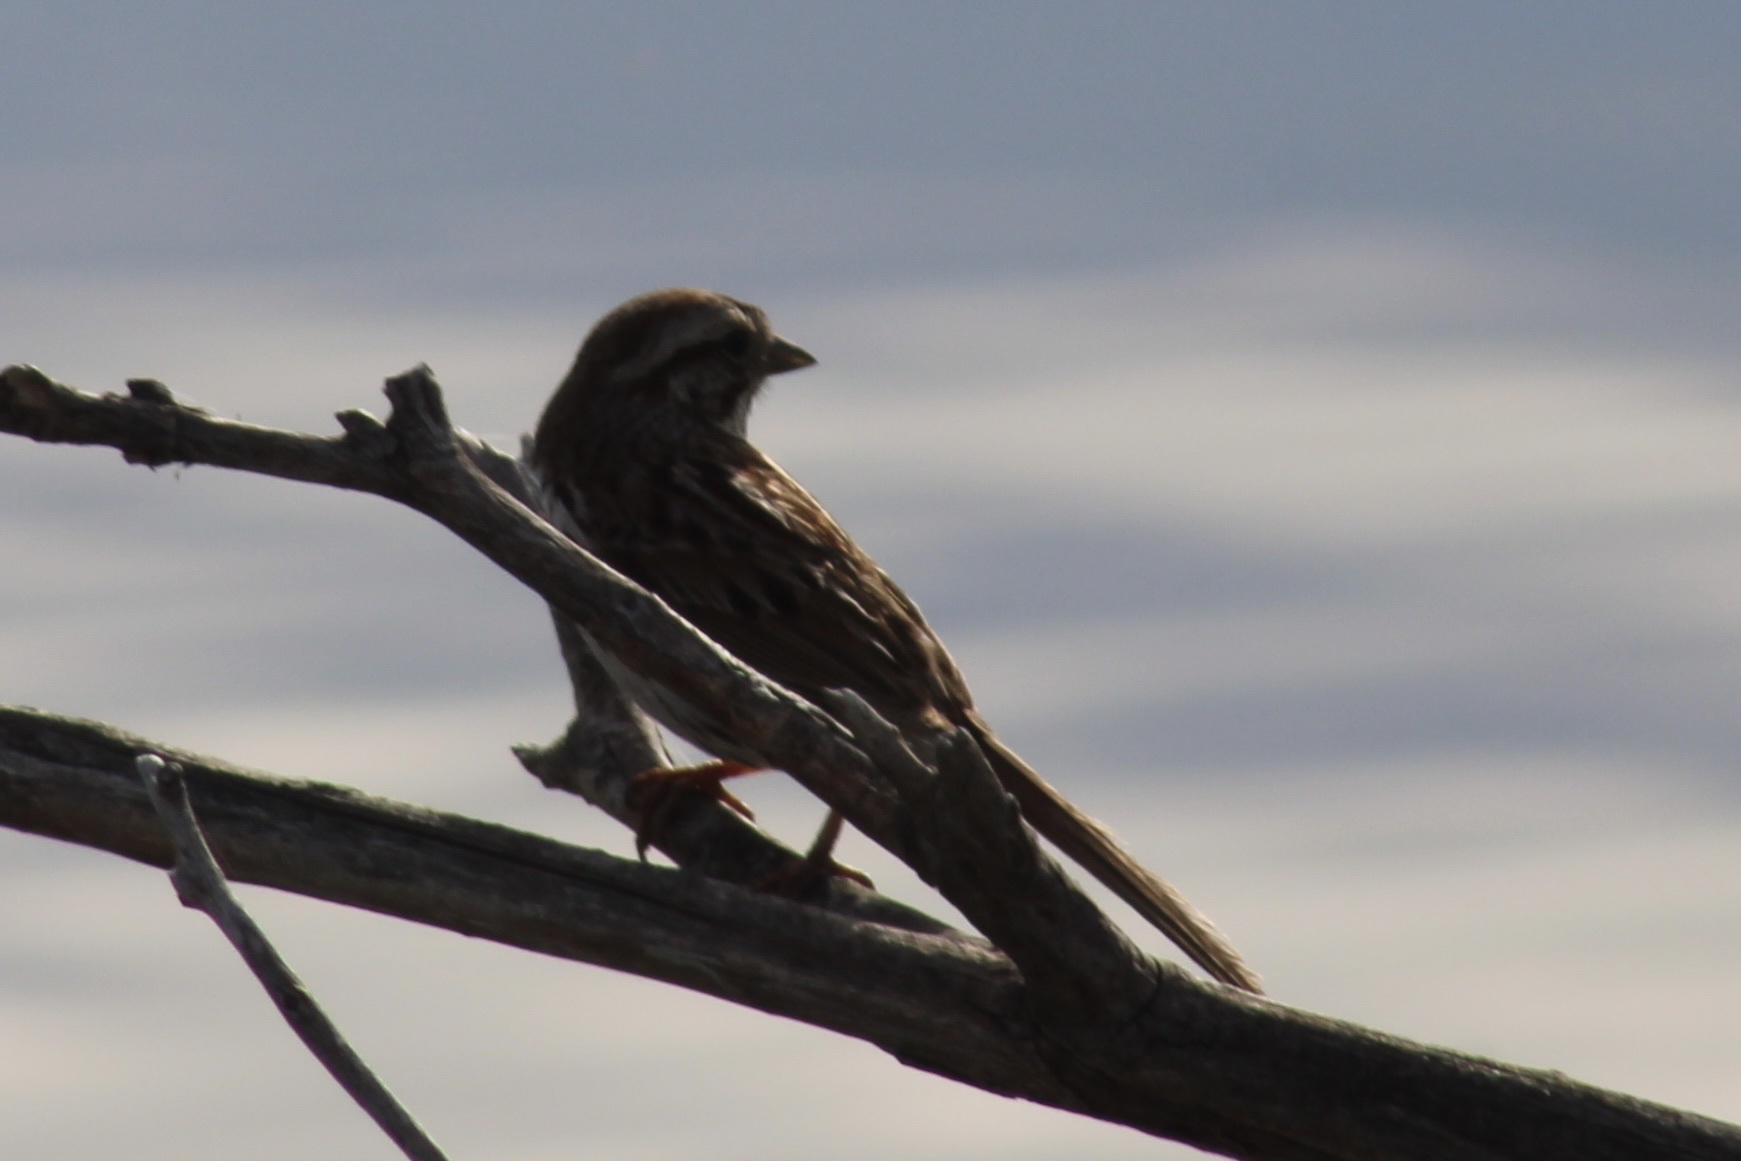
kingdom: Animalia
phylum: Chordata
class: Aves
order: Passeriformes
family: Passerellidae
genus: Melospiza
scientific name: Melospiza melodia
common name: Song sparrow
